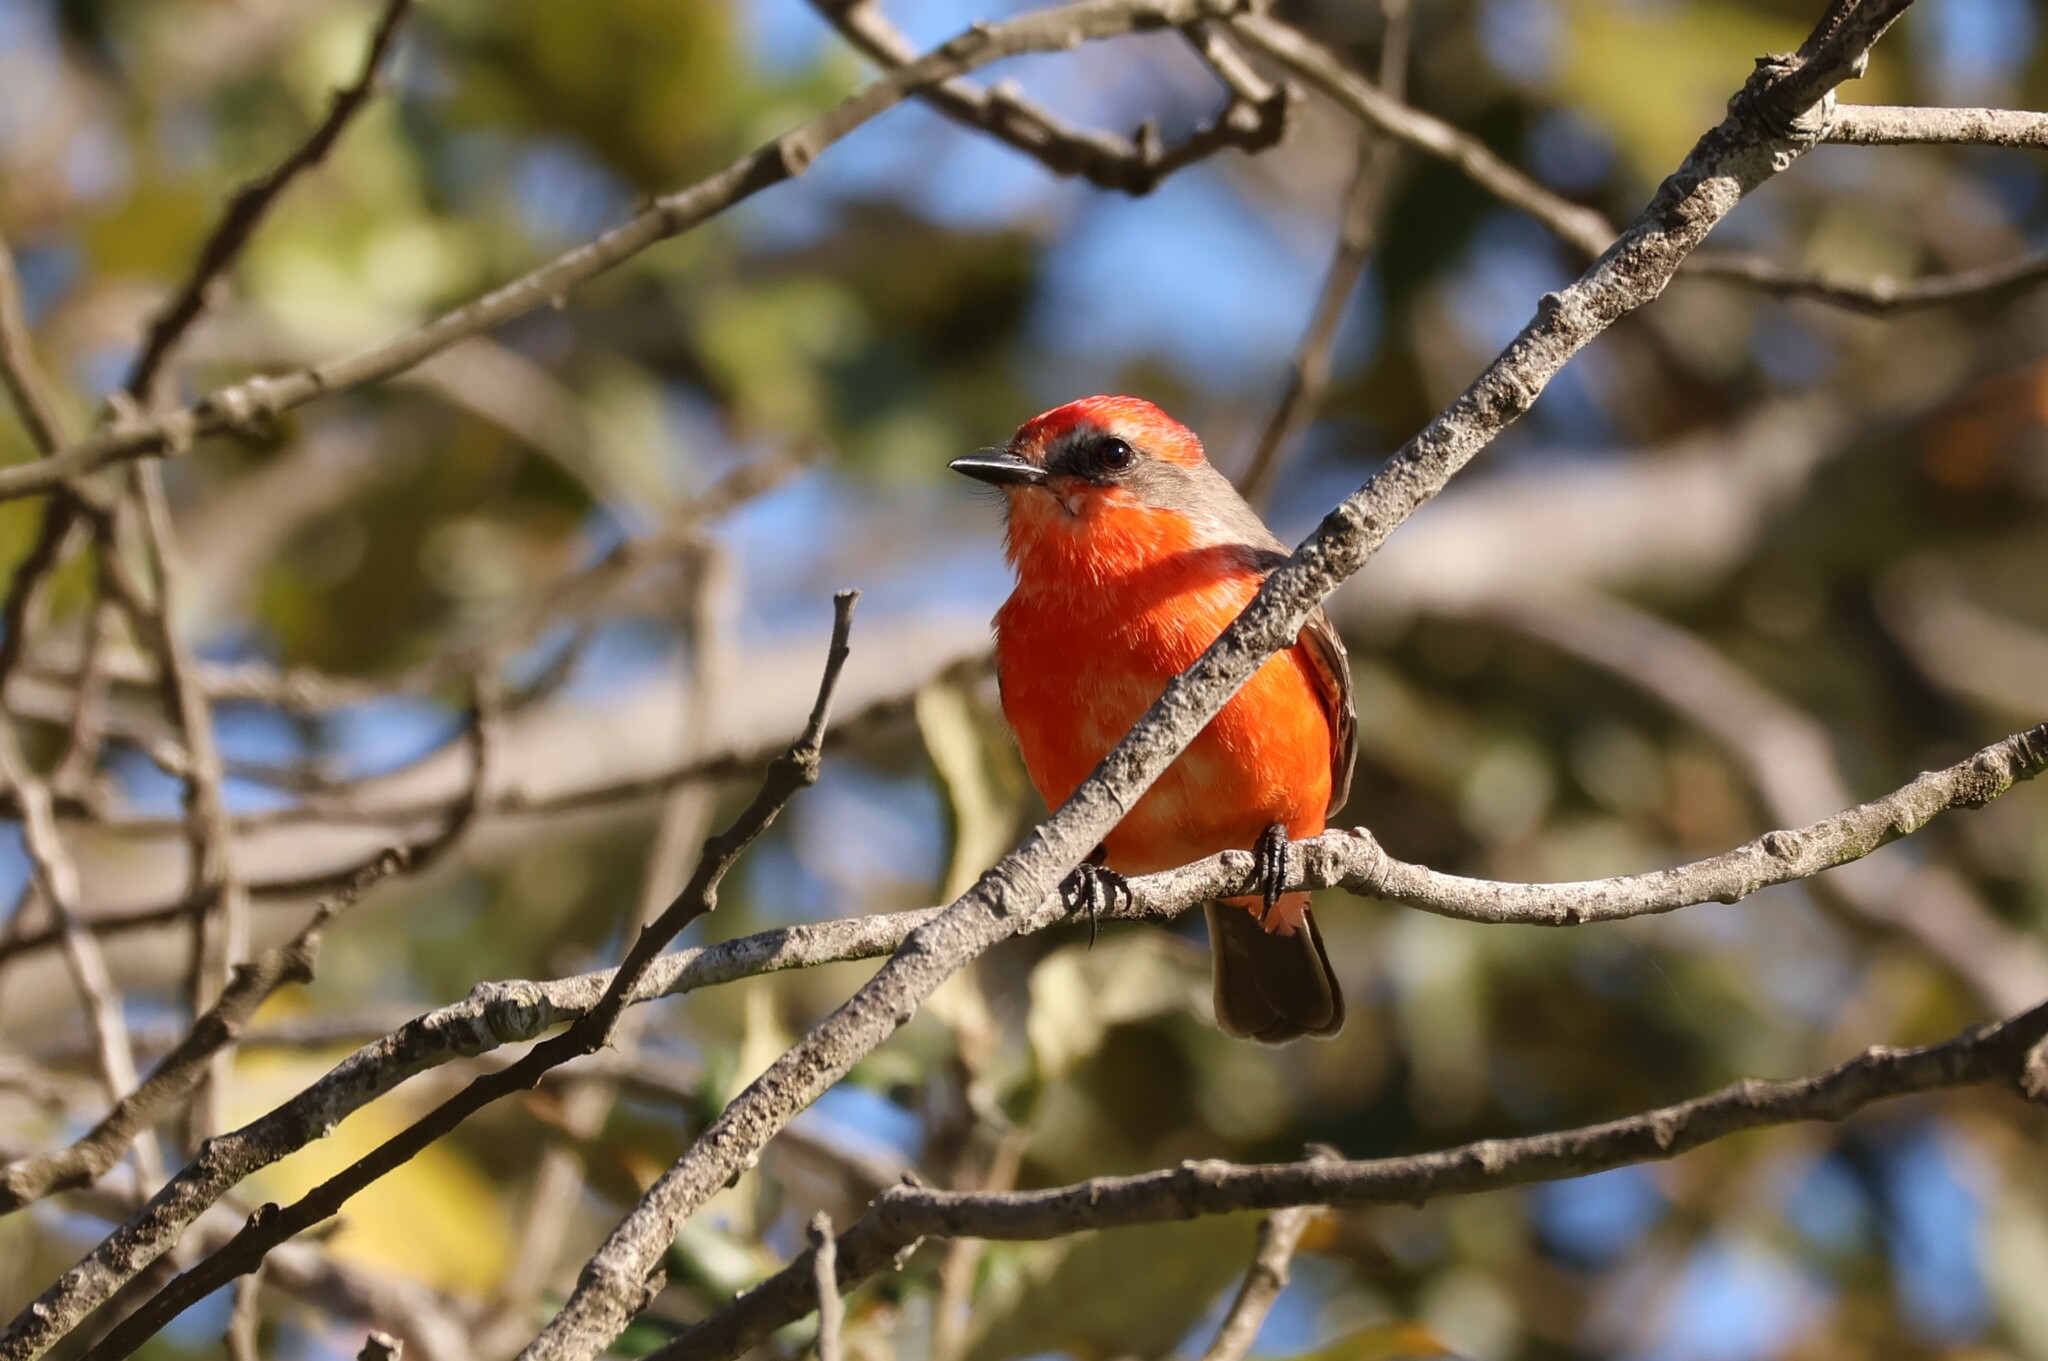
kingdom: Animalia
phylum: Chordata
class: Aves
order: Passeriformes
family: Tyrannidae
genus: Pyrocephalus
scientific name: Pyrocephalus rubinus
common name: Vermilion flycatcher
